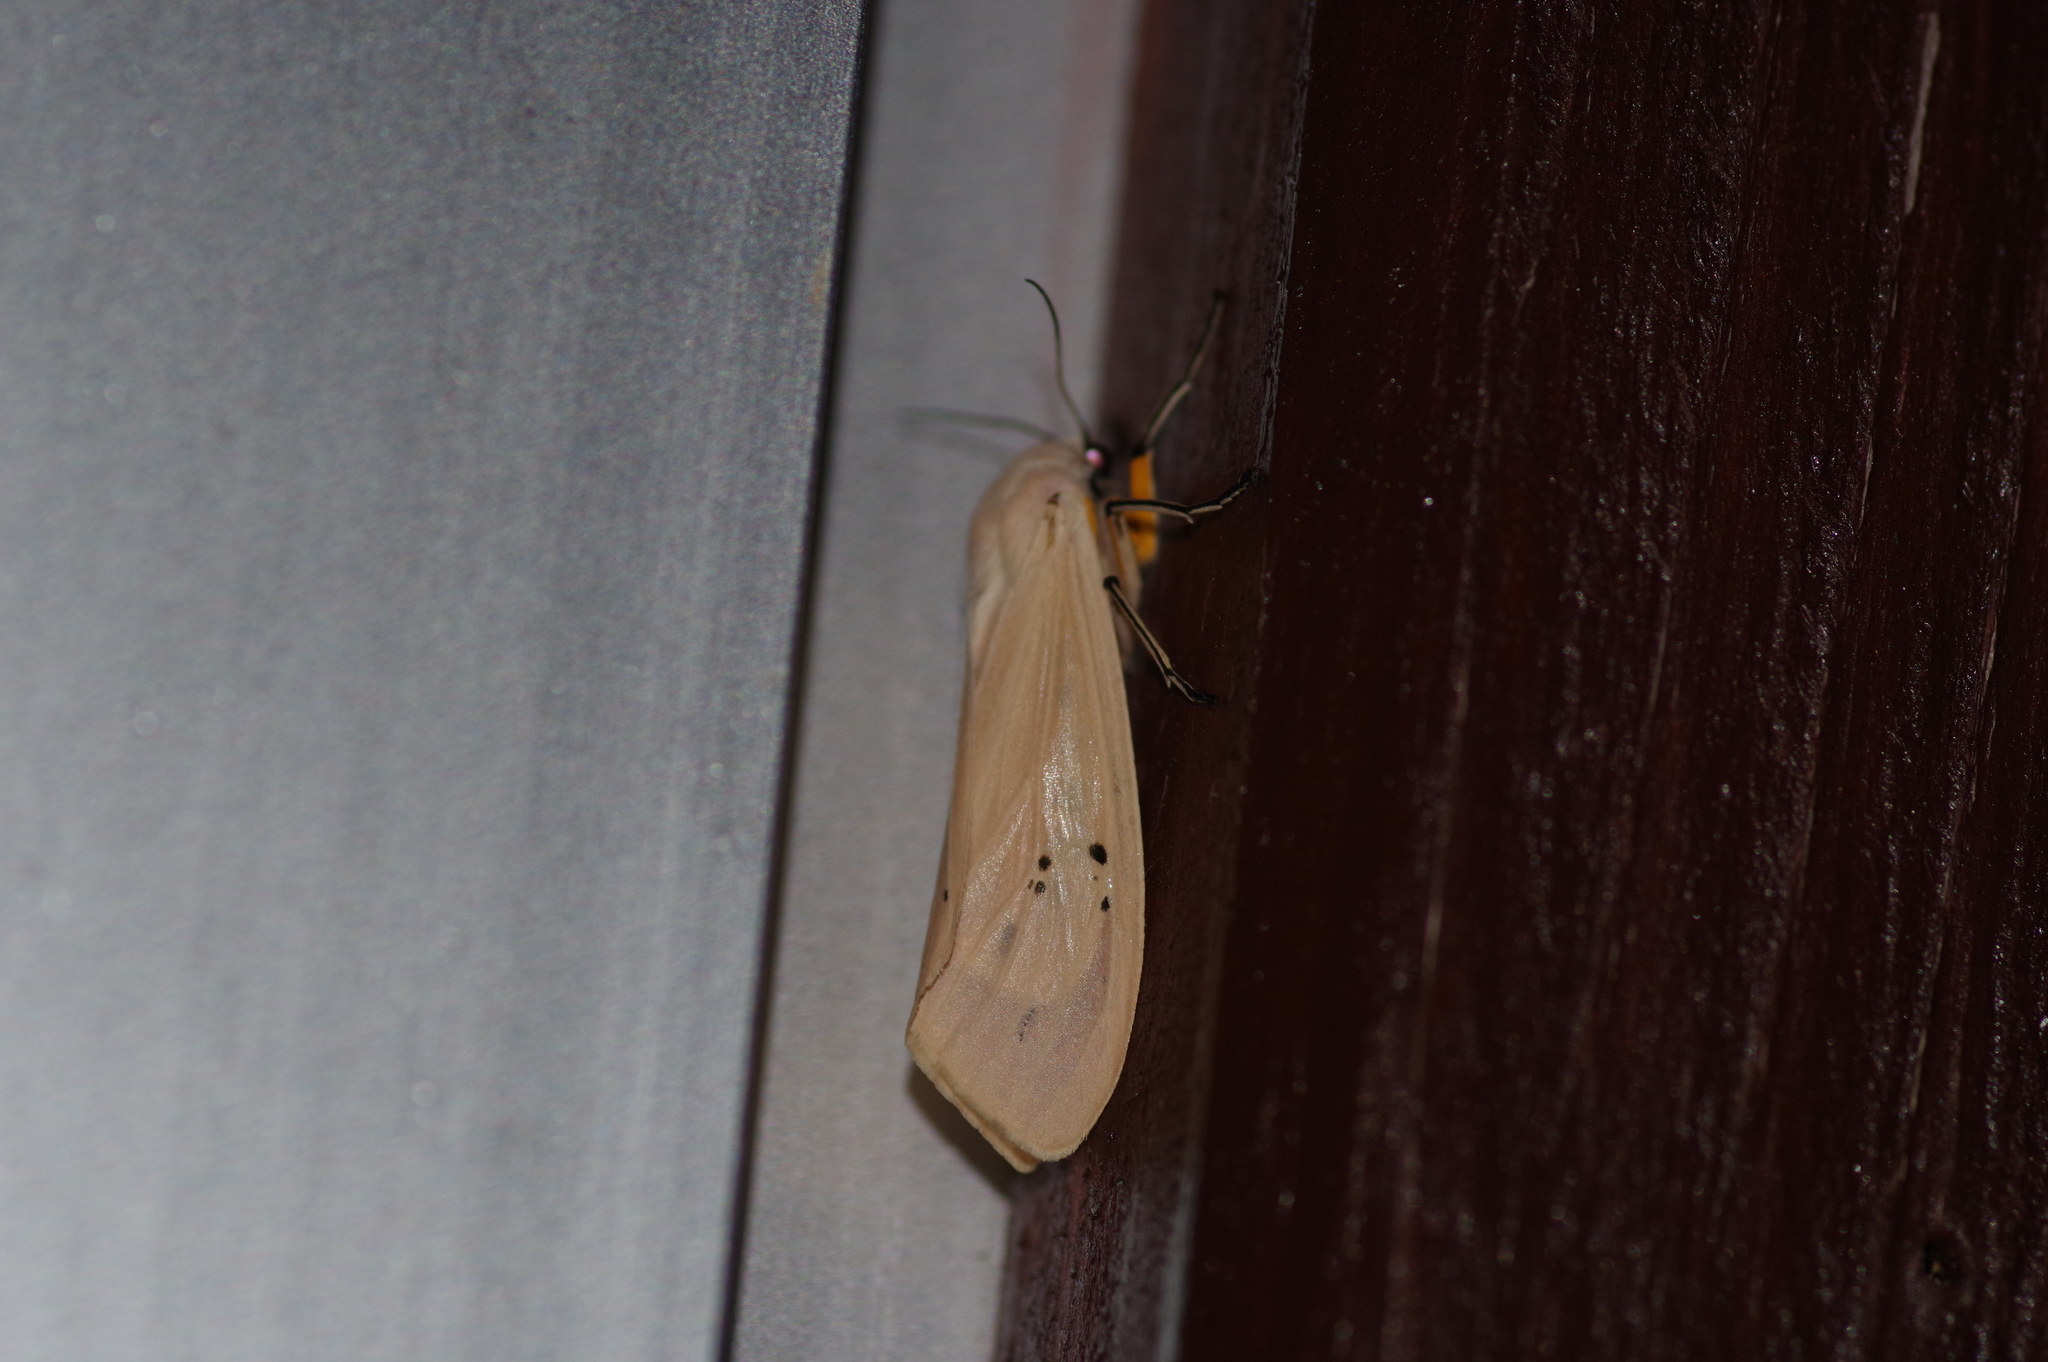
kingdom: Animalia
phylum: Arthropoda
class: Insecta
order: Lepidoptera
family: Erebidae
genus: Creatonotos
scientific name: Creatonotos transiens
